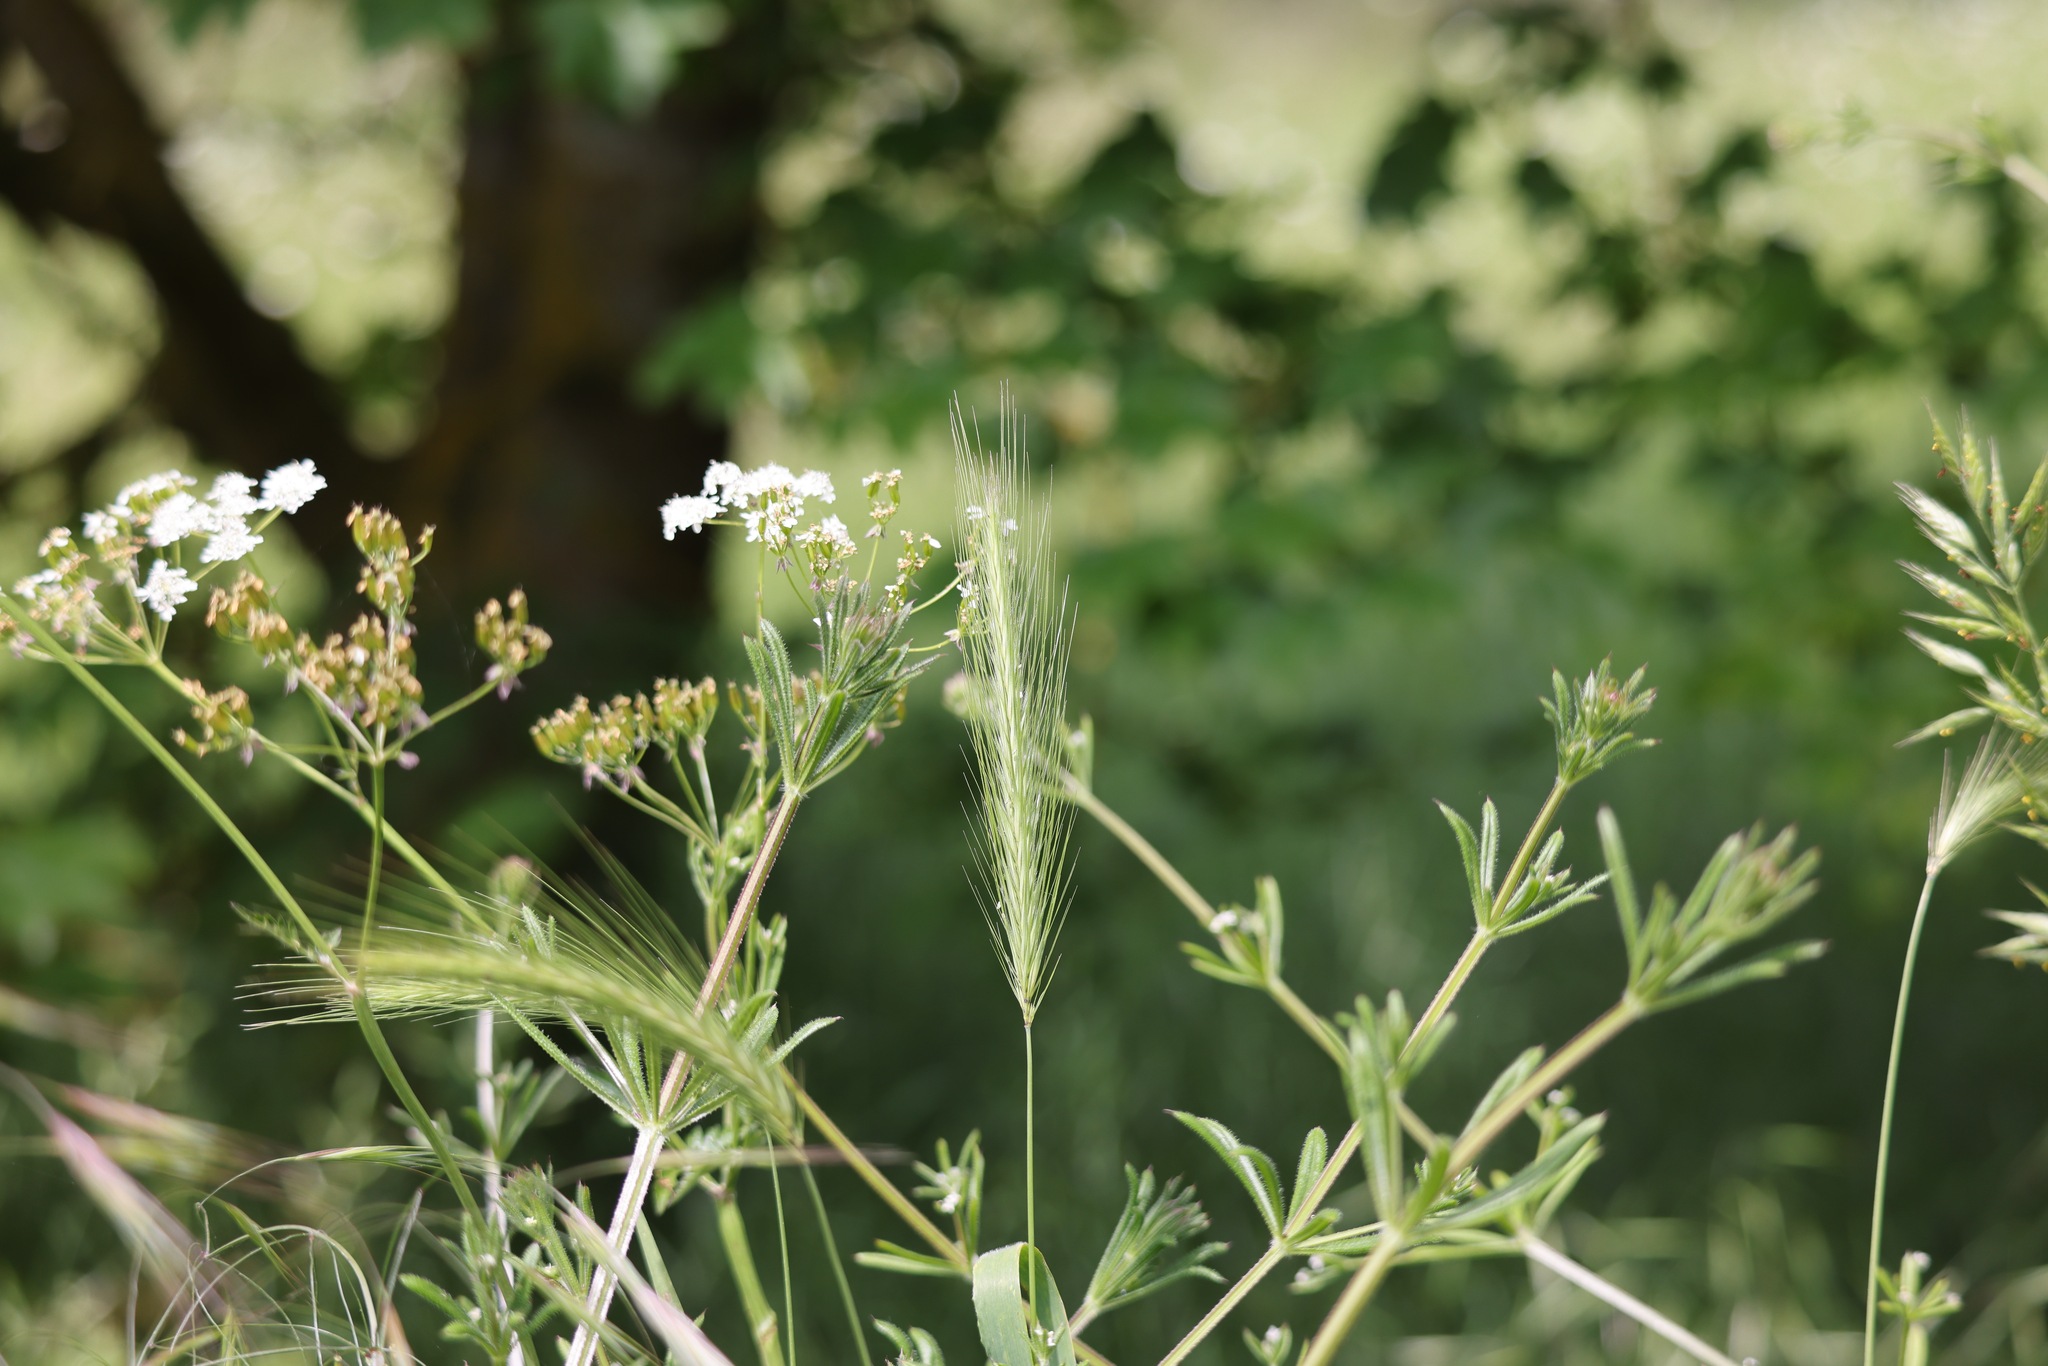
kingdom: Plantae
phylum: Tracheophyta
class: Liliopsida
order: Poales
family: Poaceae
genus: Hordeum
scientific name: Hordeum murinum
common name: Wall barley
